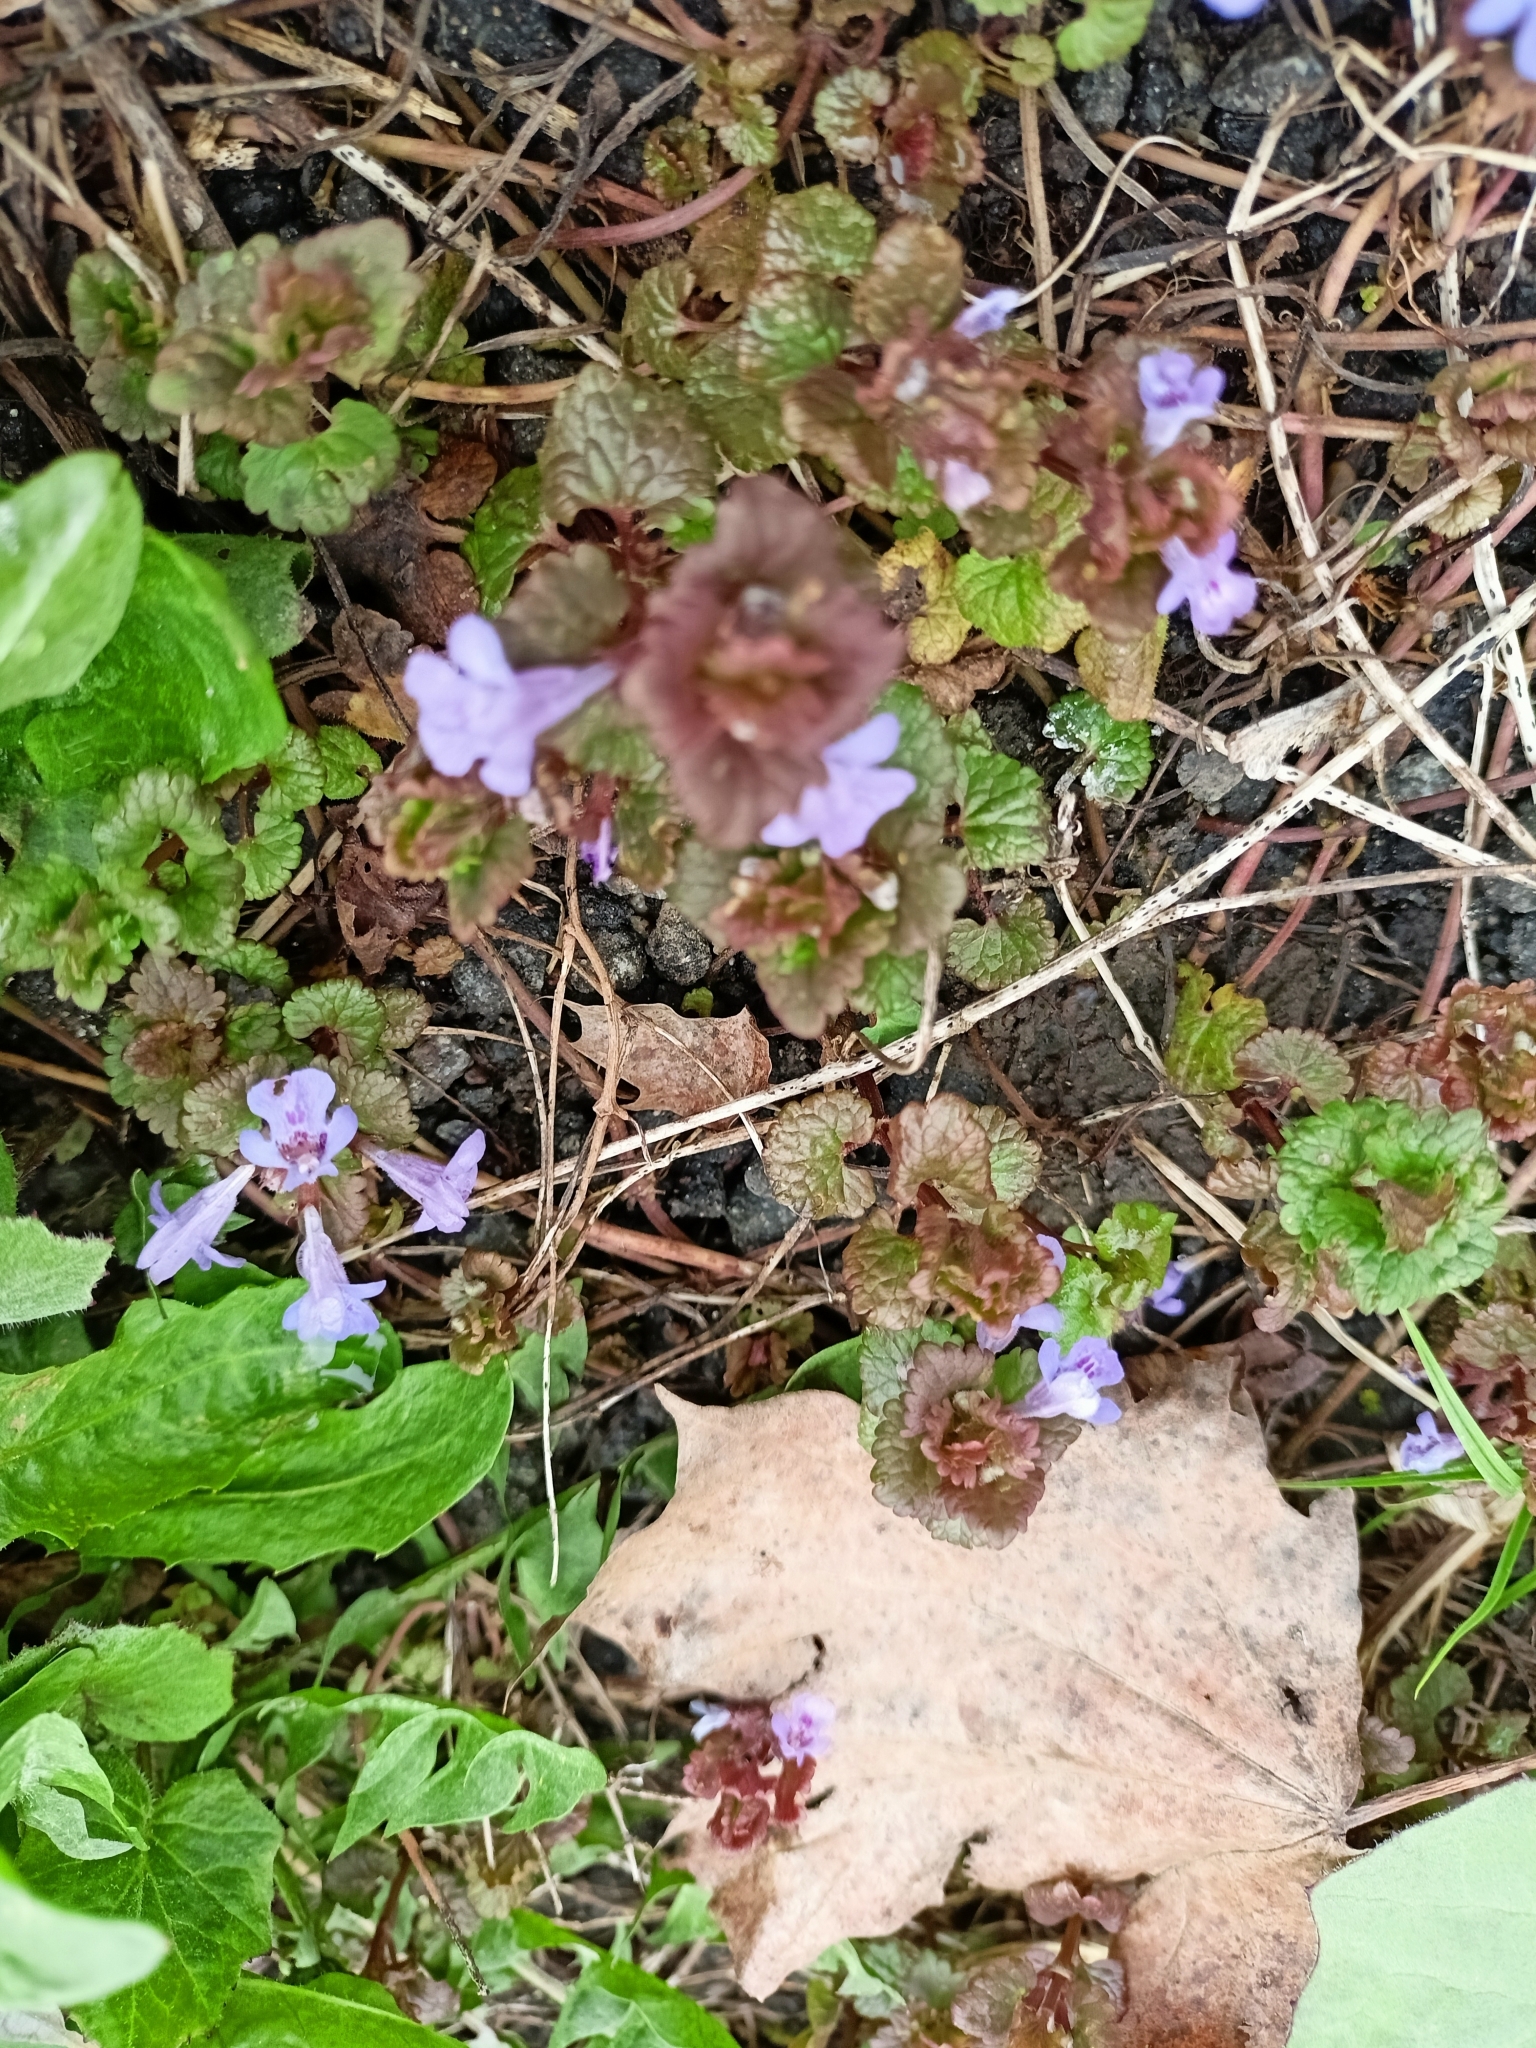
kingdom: Plantae
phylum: Tracheophyta
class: Magnoliopsida
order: Lamiales
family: Lamiaceae
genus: Glechoma
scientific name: Glechoma hederacea
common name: Ground ivy
